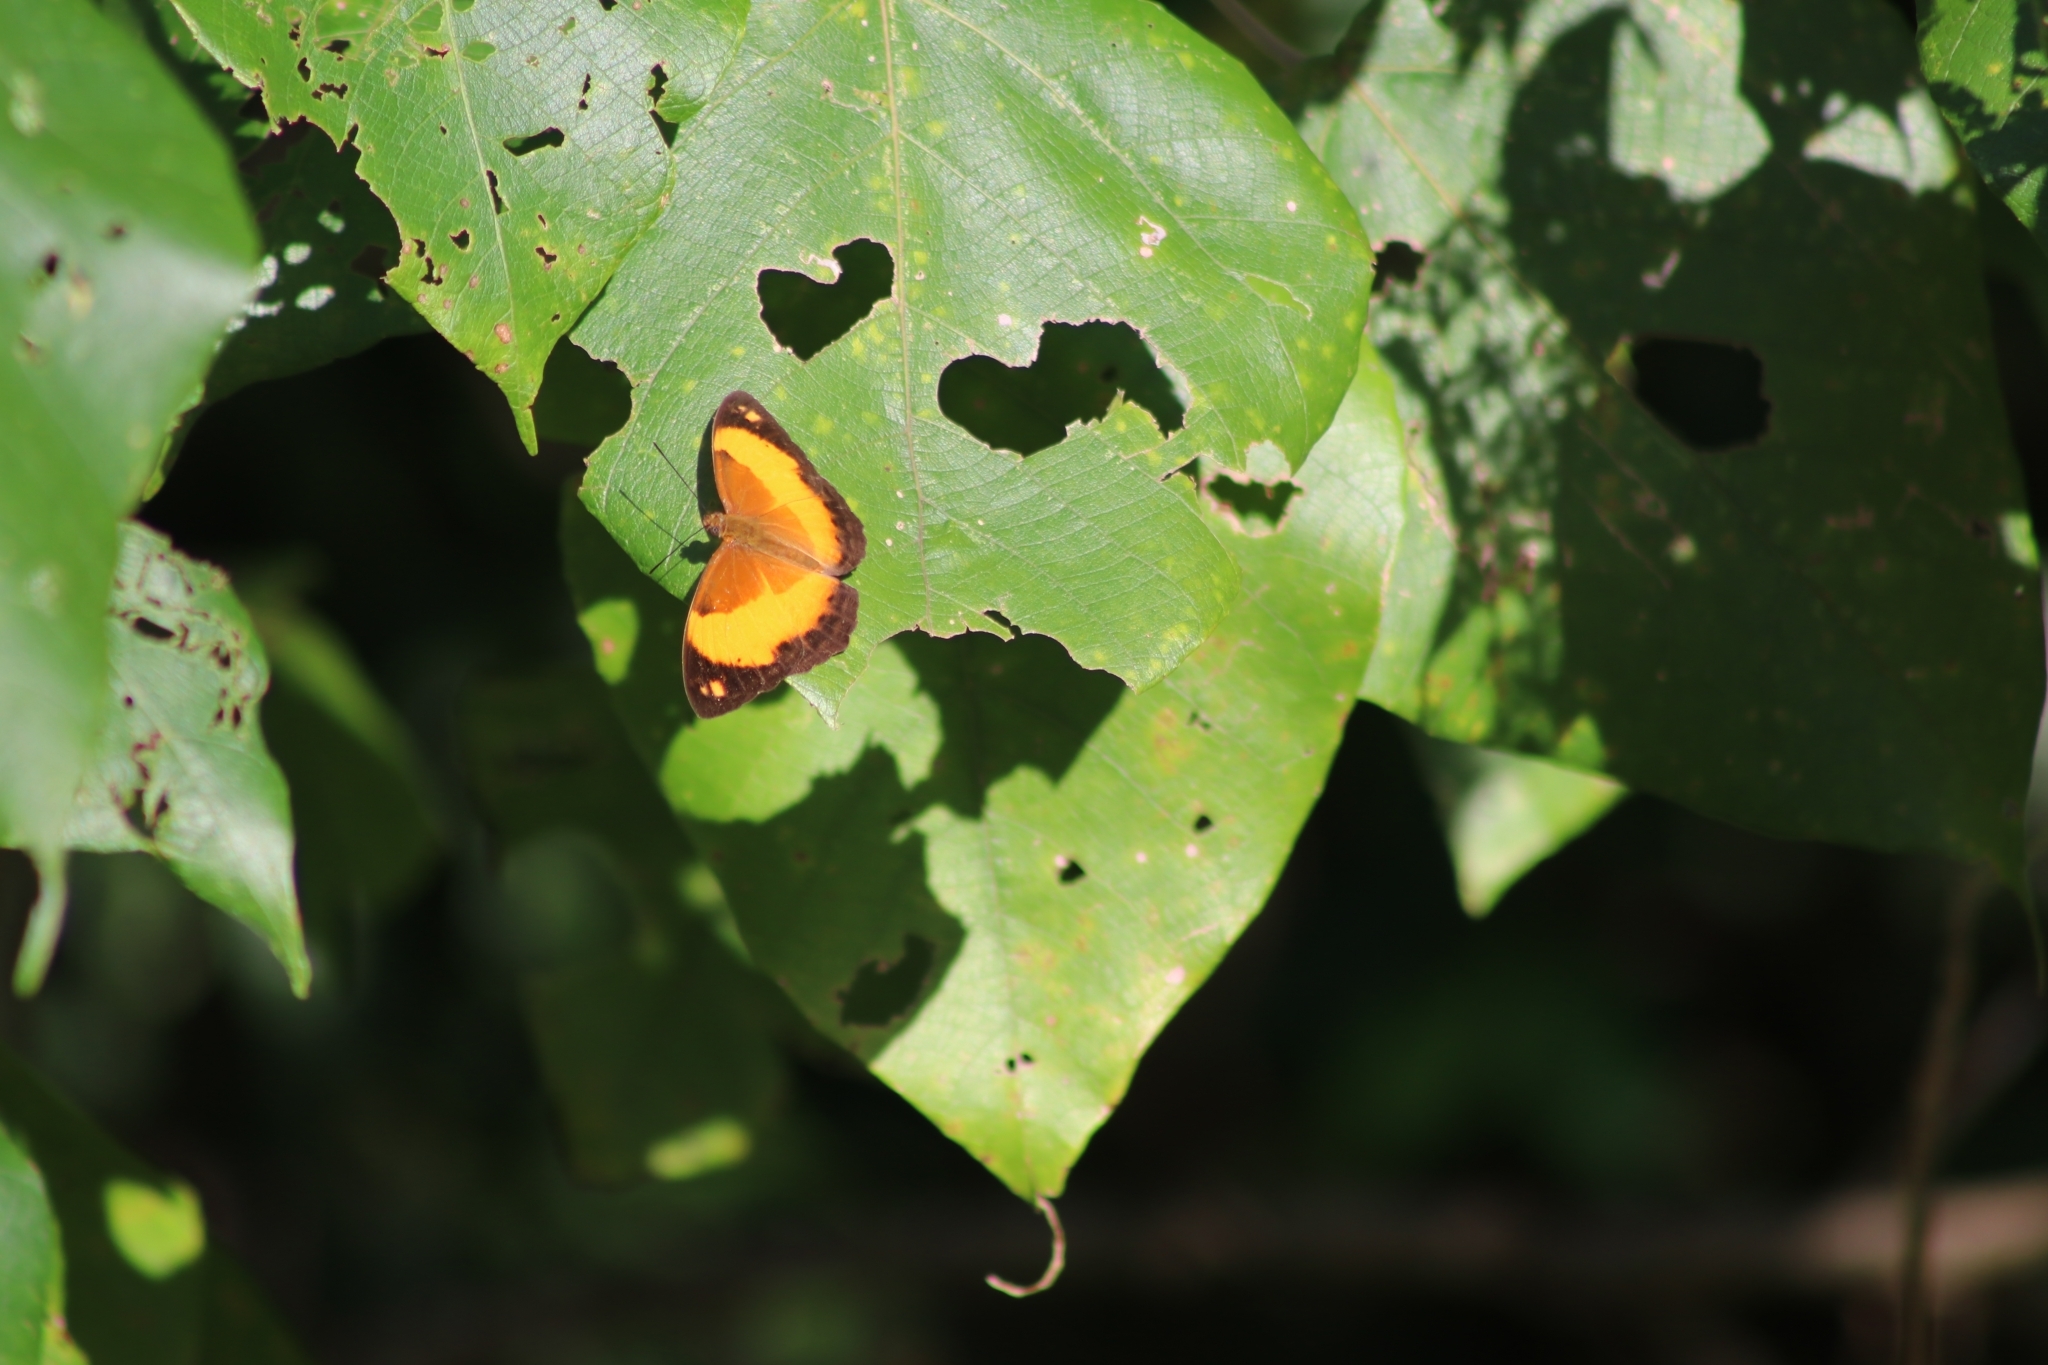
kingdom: Animalia
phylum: Arthropoda
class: Insecta
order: Lepidoptera
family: Nymphalidae
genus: Cupha
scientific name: Cupha prosope
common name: Bordered rustic
